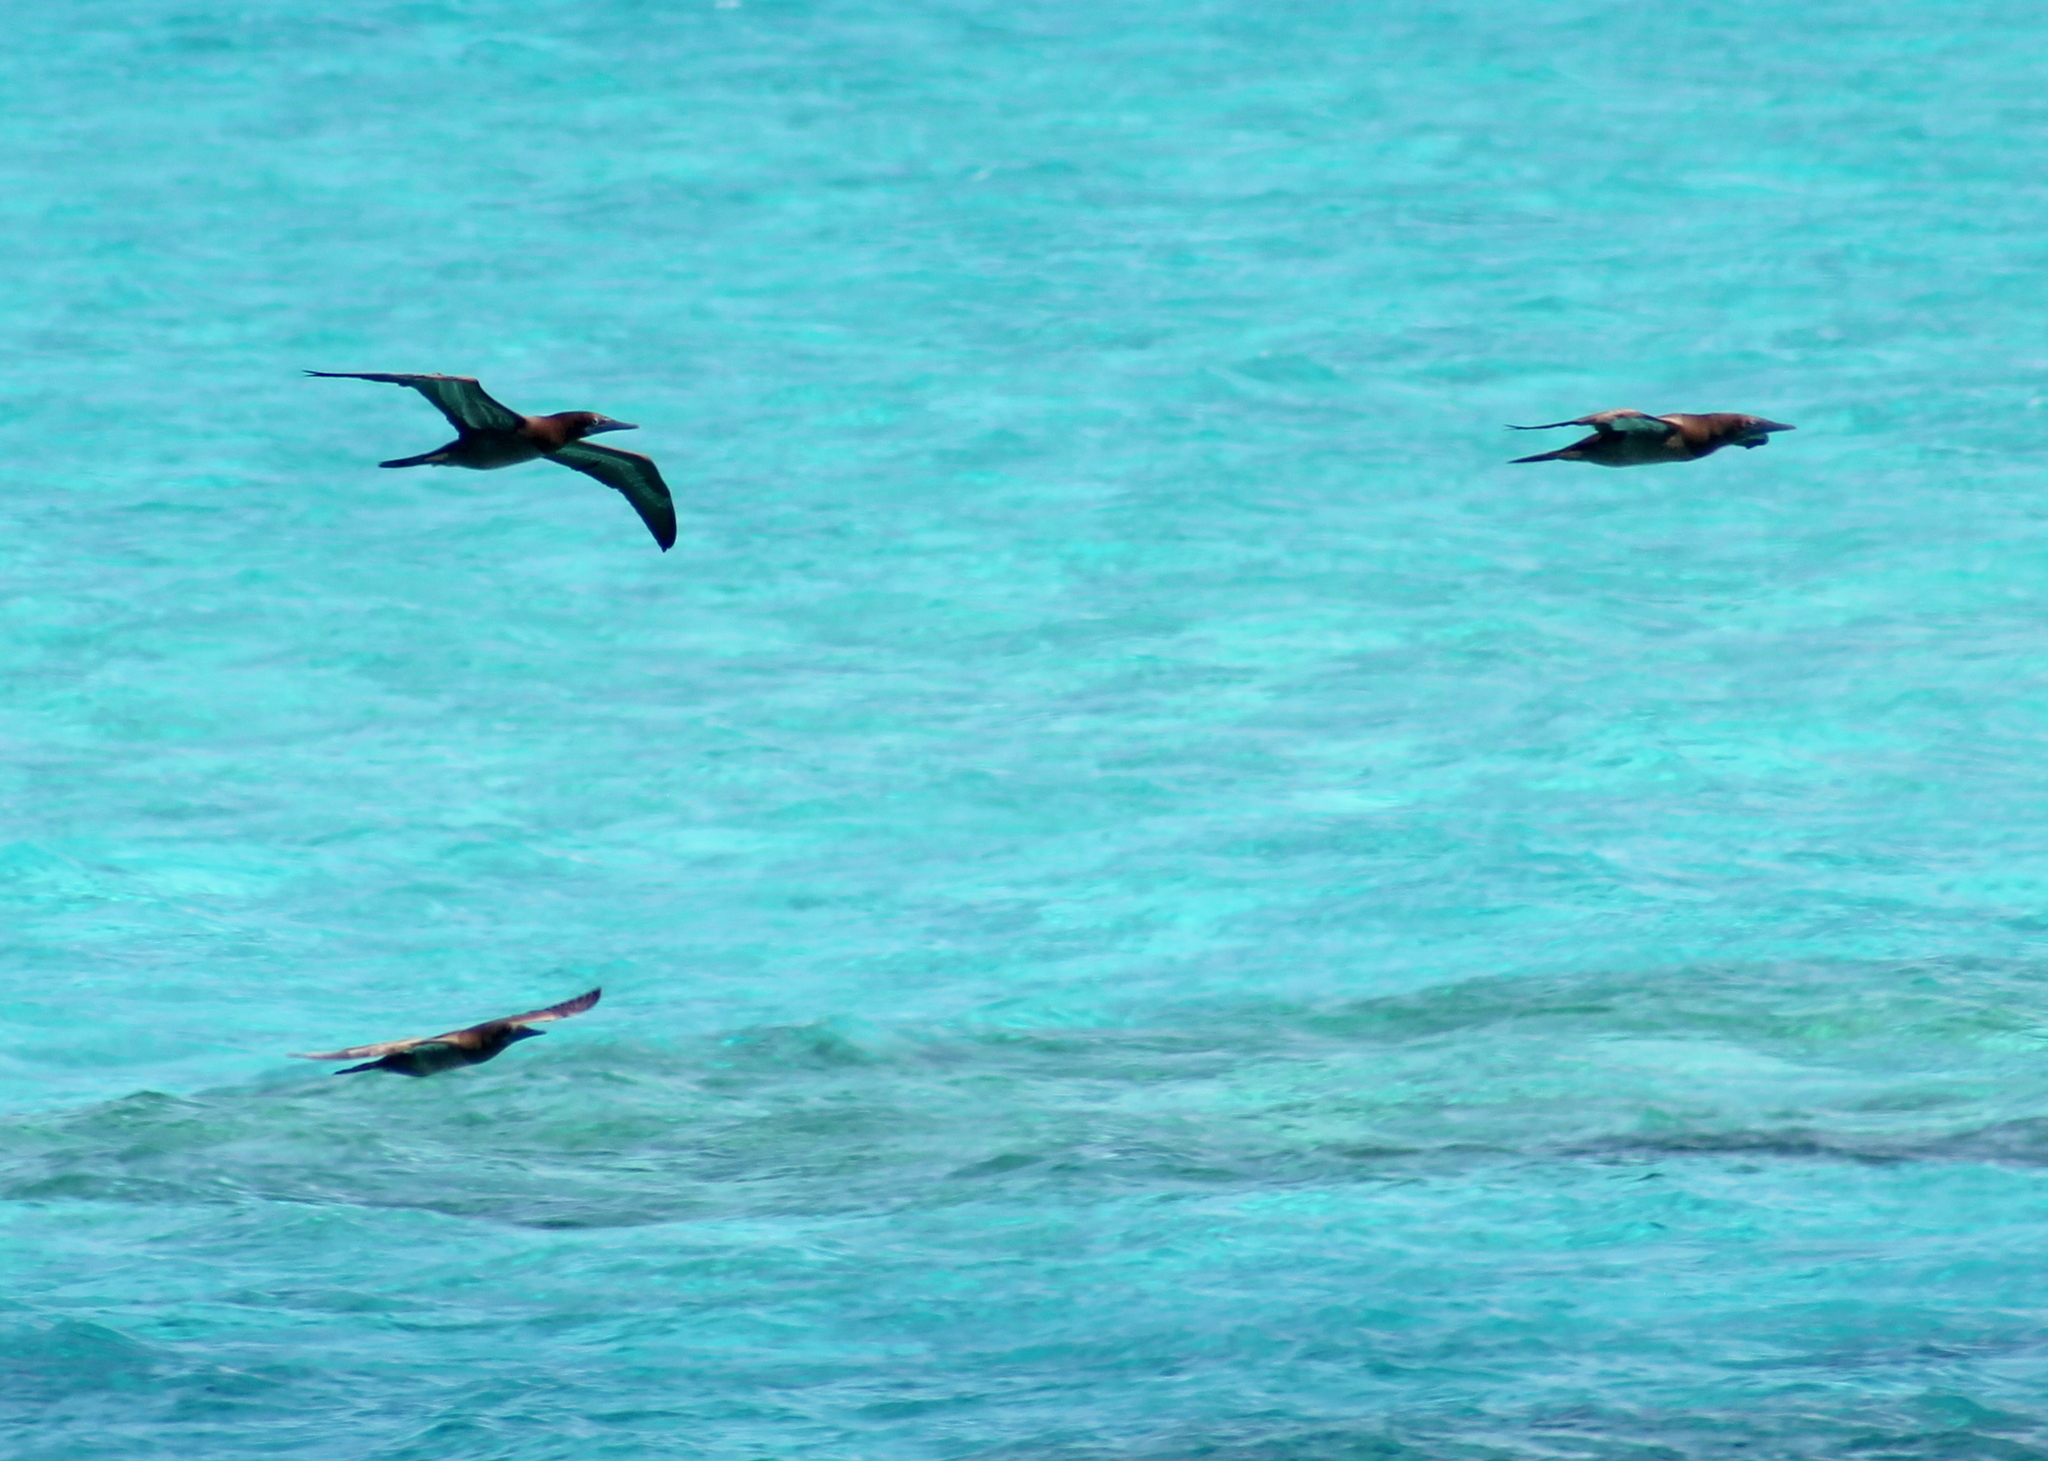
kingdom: Animalia
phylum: Chordata
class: Aves
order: Suliformes
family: Sulidae
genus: Sula
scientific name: Sula leucogaster
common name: Brown booby
